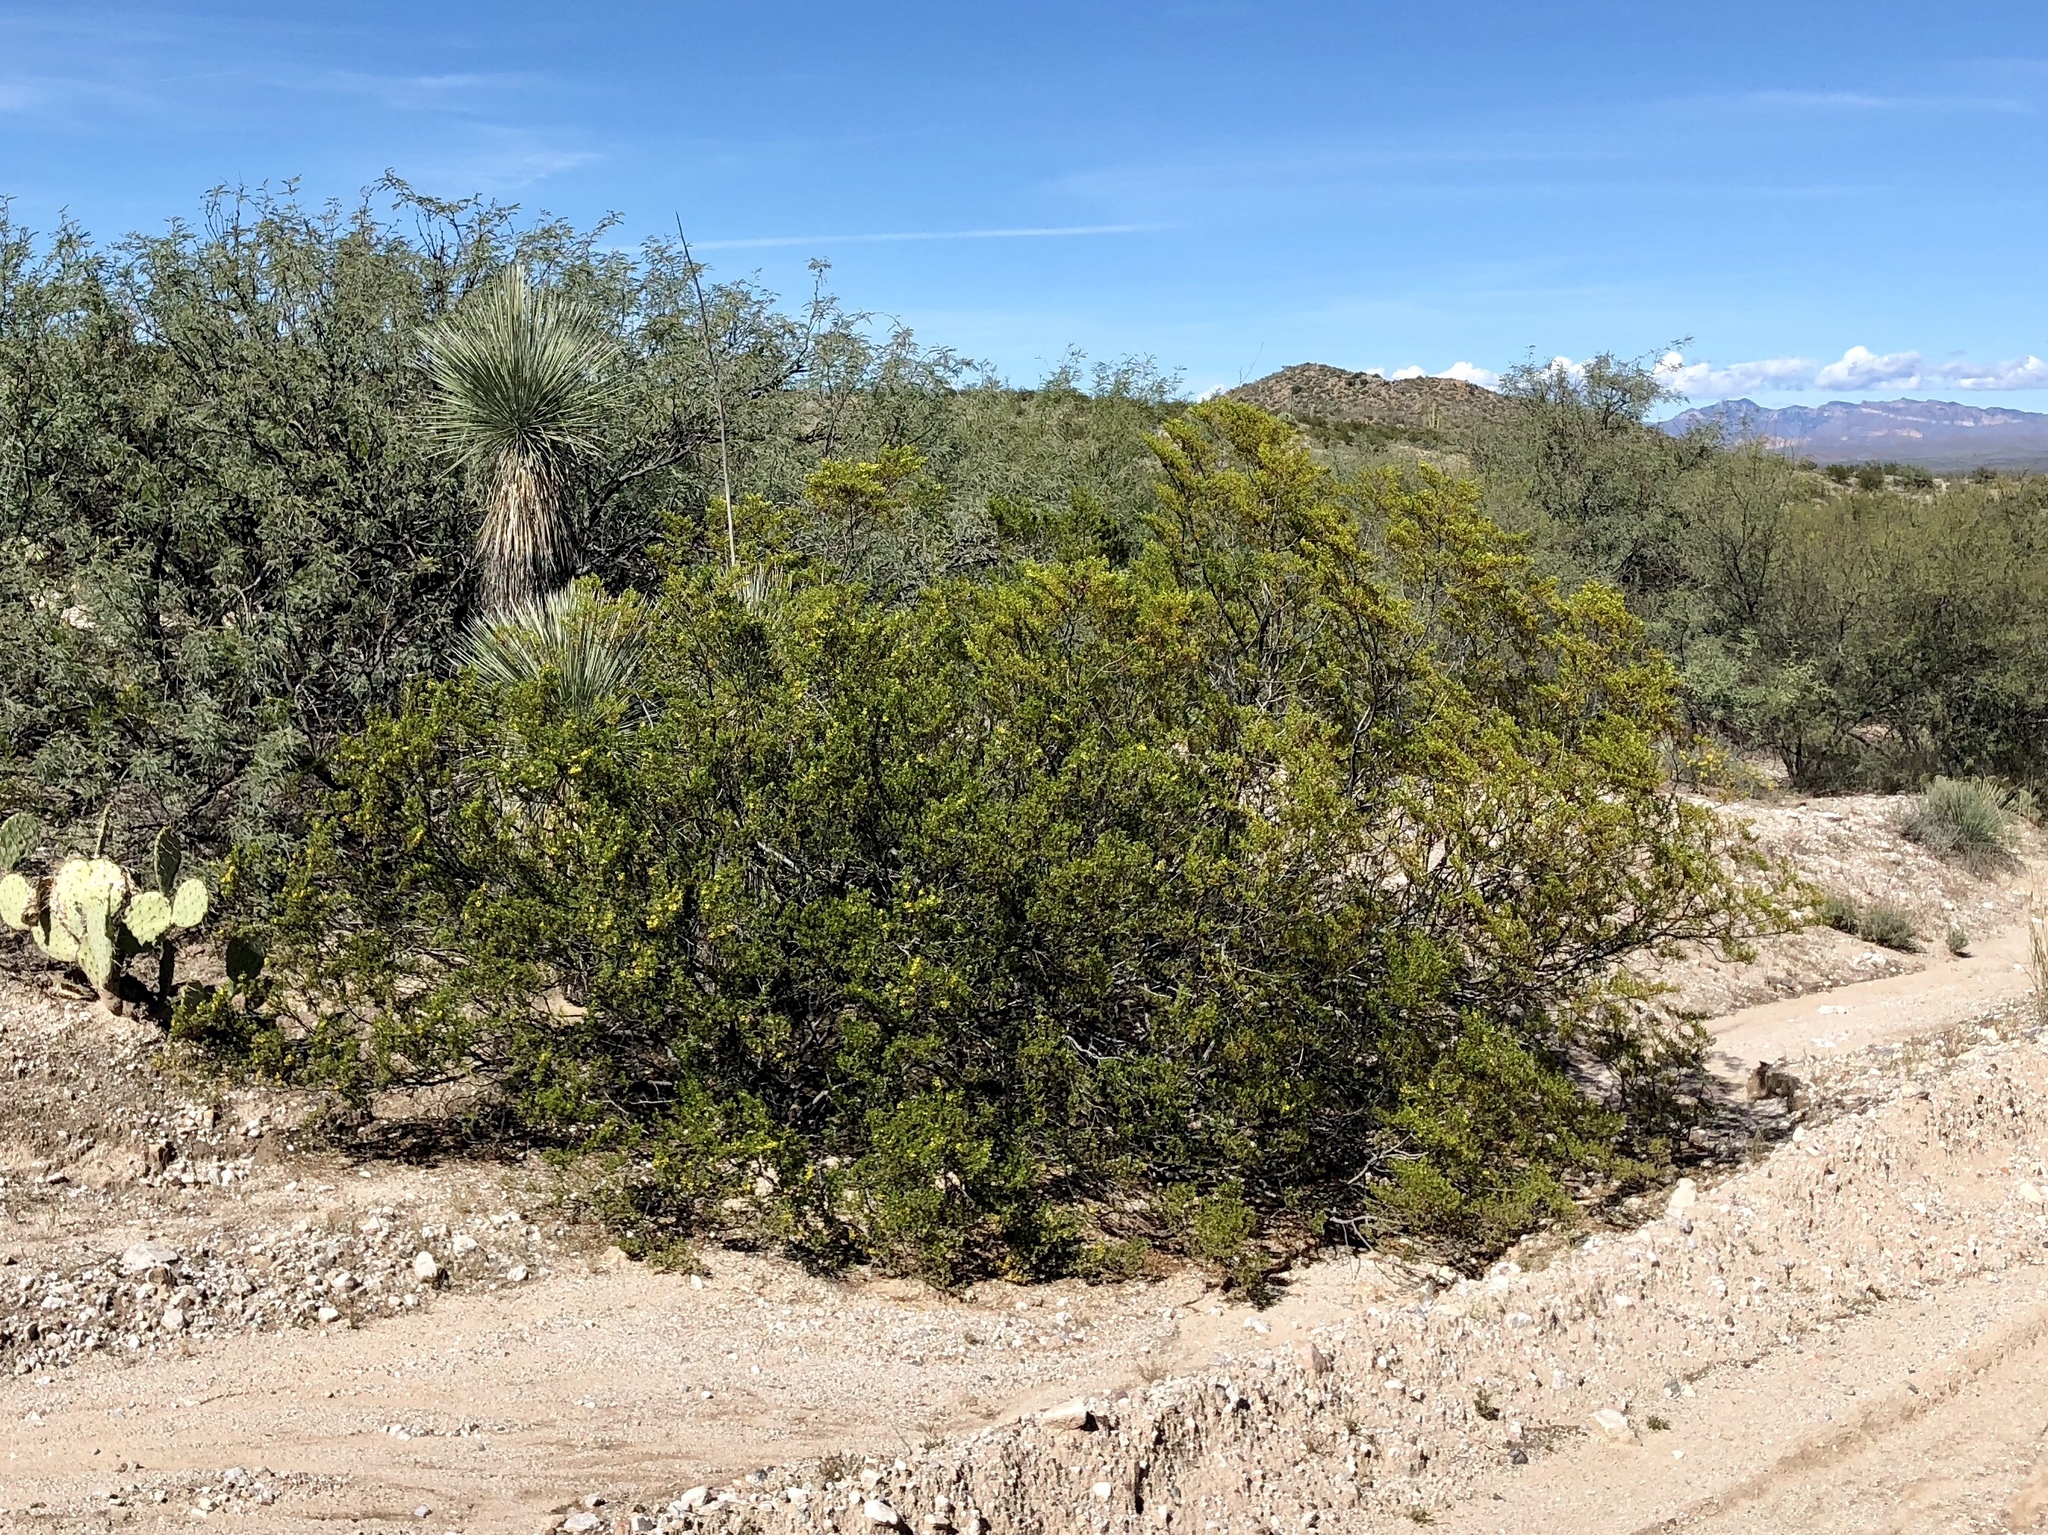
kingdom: Plantae
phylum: Tracheophyta
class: Magnoliopsida
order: Zygophyllales
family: Zygophyllaceae
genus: Larrea
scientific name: Larrea tridentata
